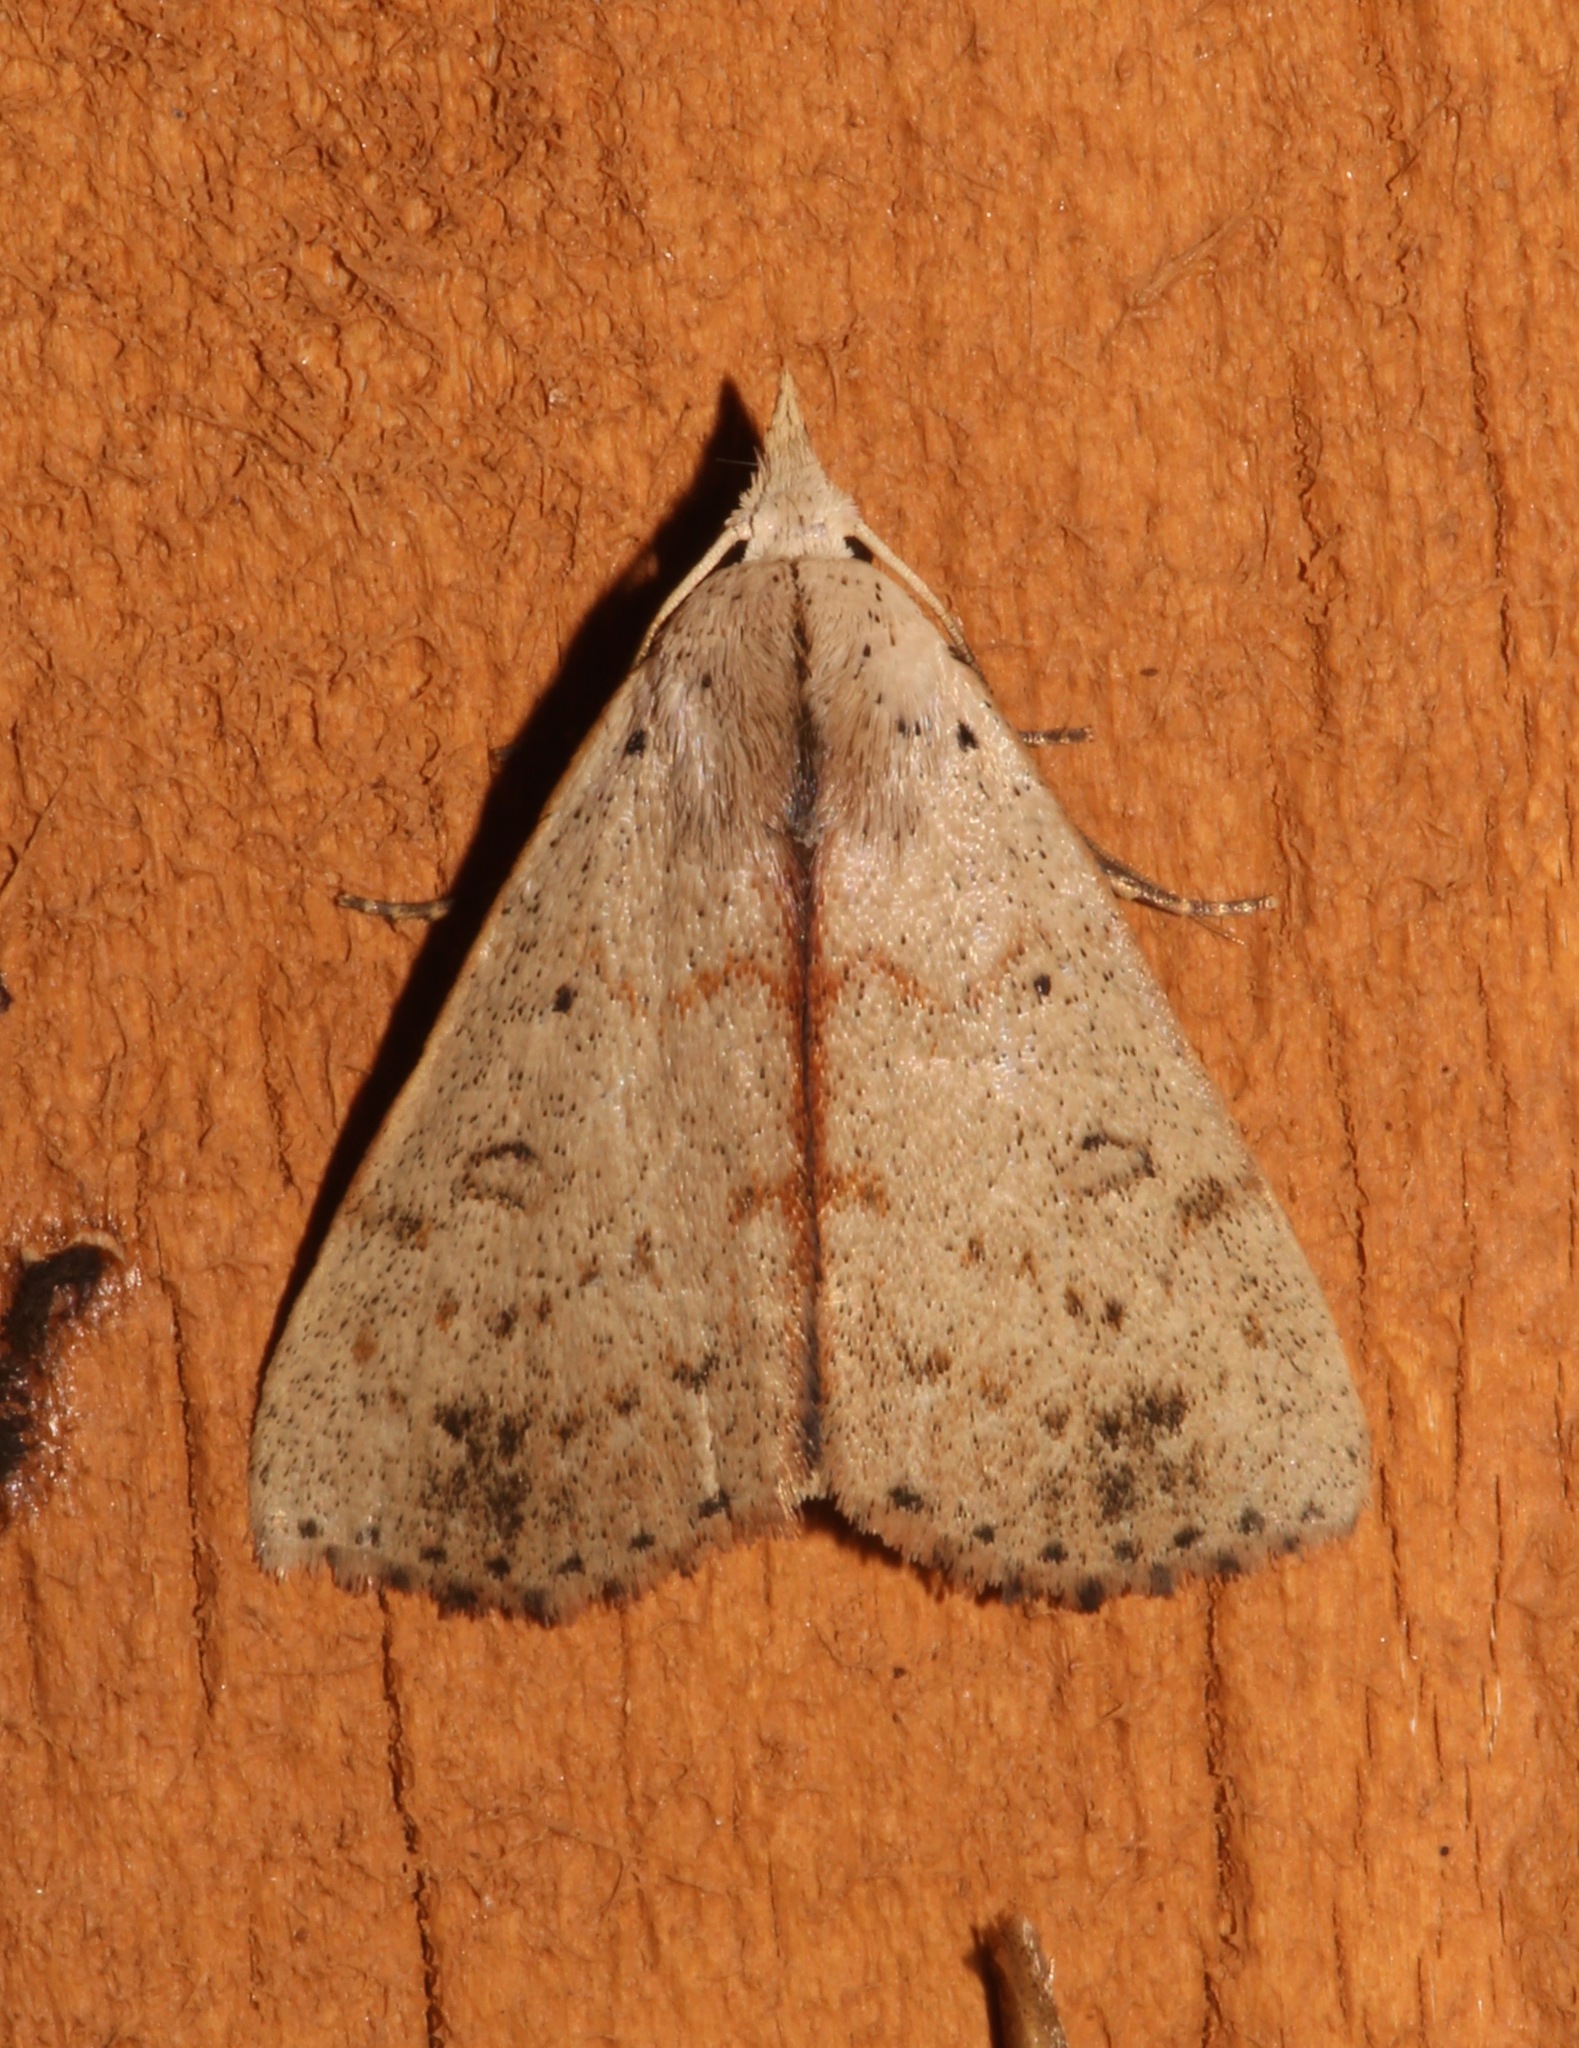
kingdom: Animalia
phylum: Arthropoda
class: Insecta
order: Lepidoptera
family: Erebidae
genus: Scolecocampa
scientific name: Scolecocampa liburna
